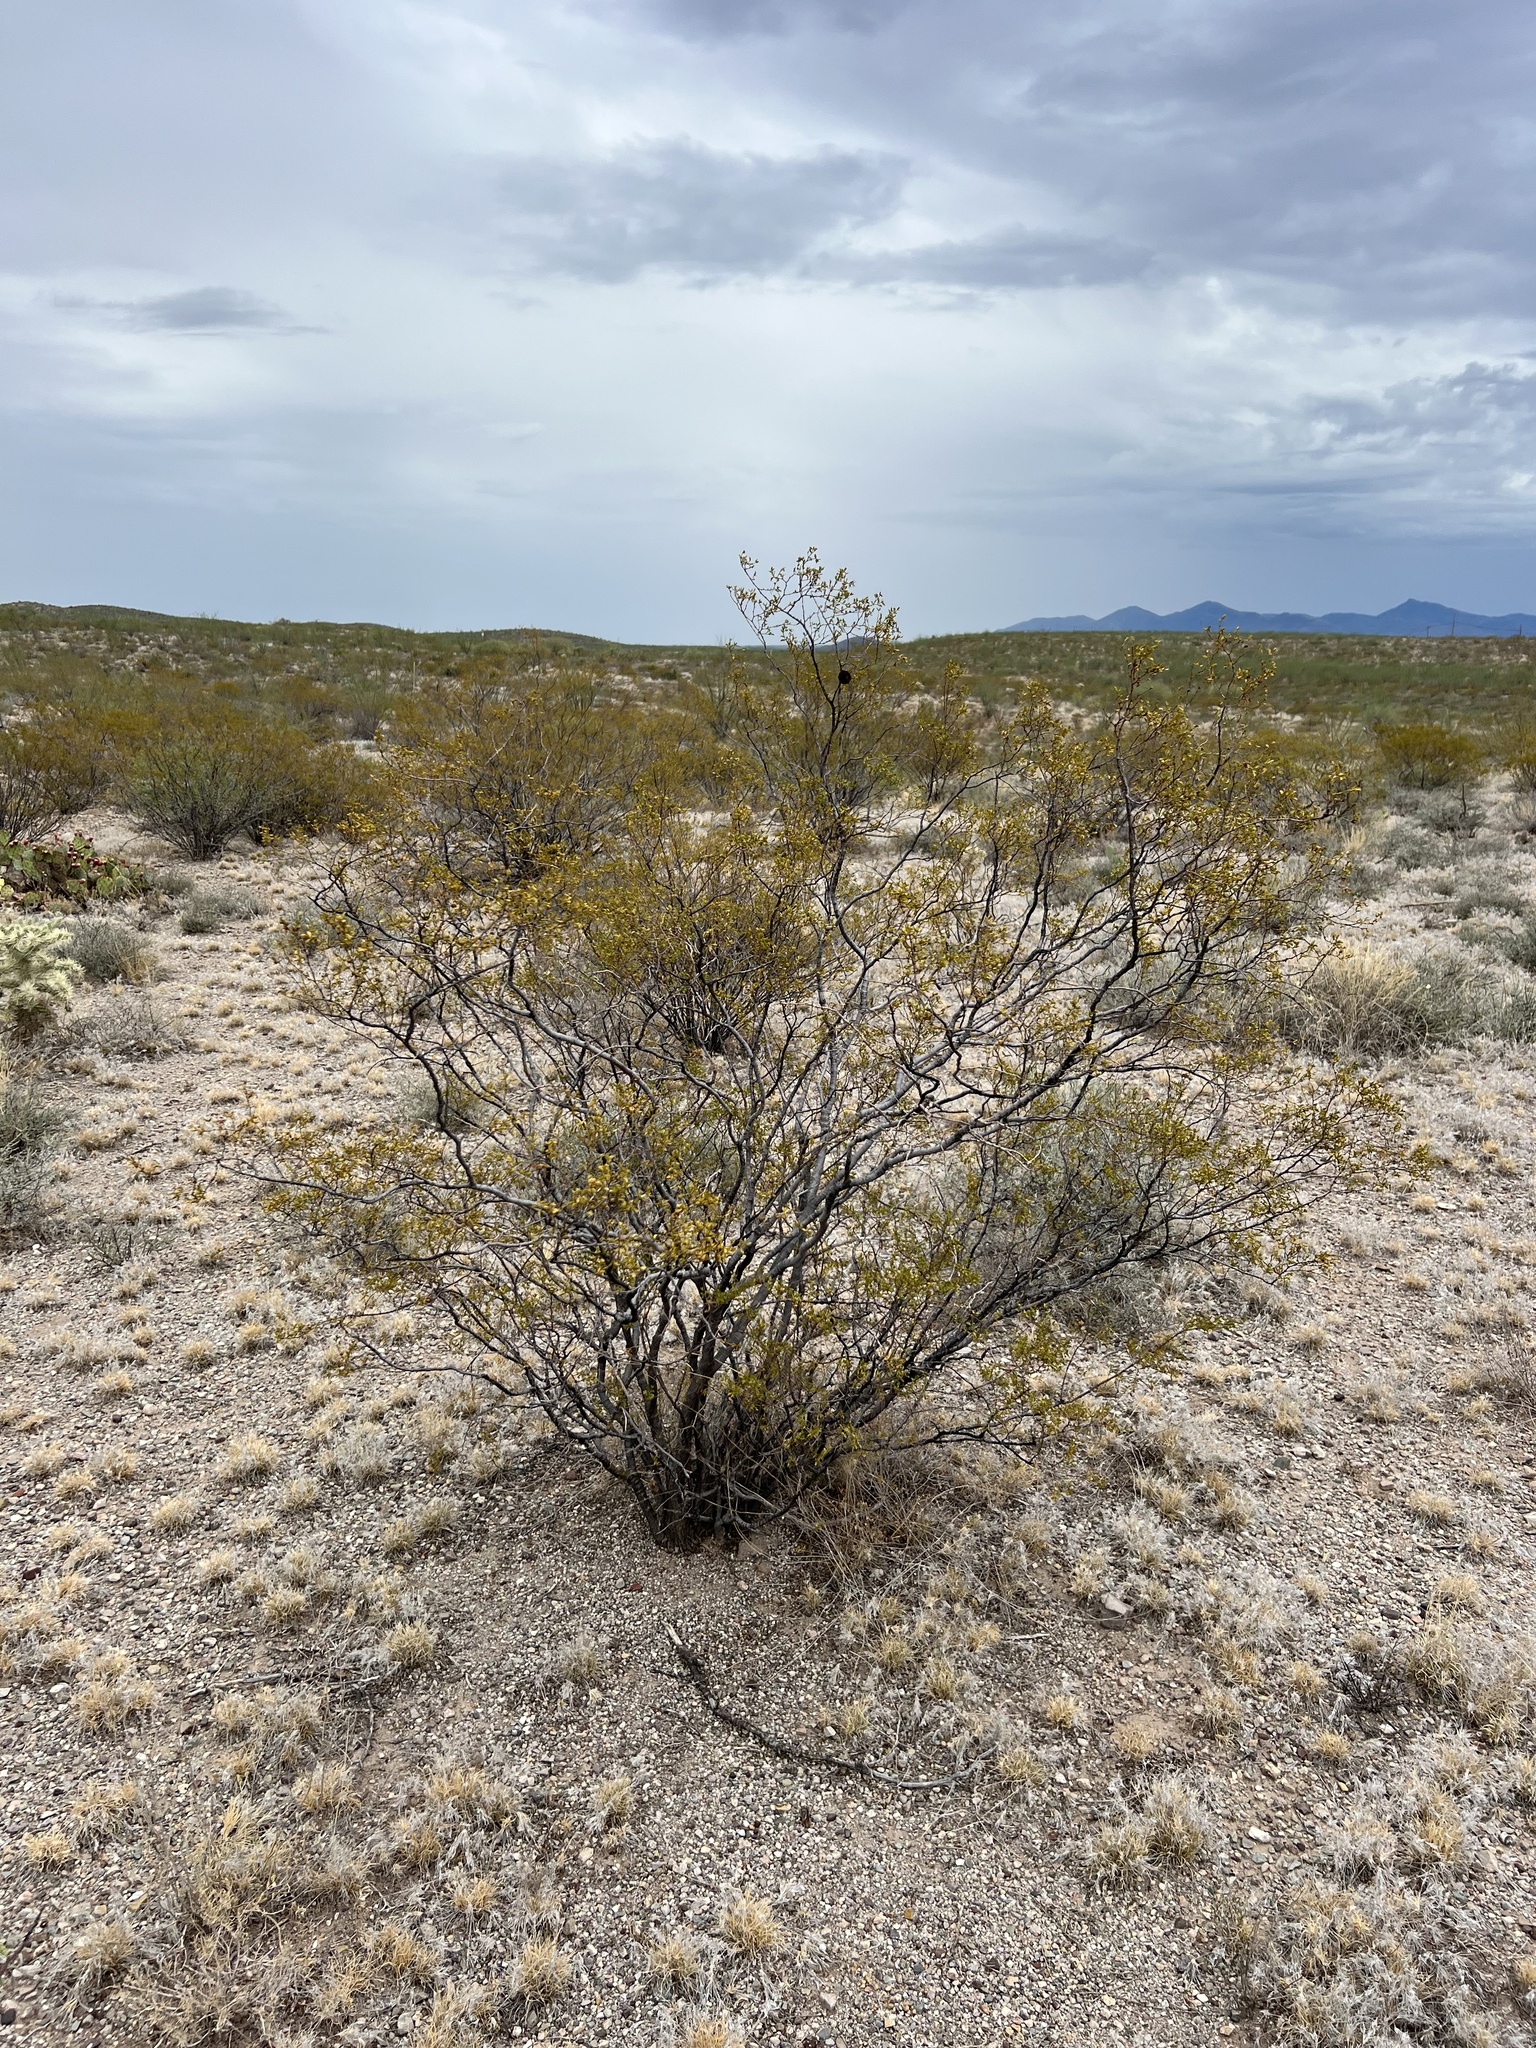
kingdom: Plantae
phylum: Tracheophyta
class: Magnoliopsida
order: Zygophyllales
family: Zygophyllaceae
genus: Larrea
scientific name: Larrea tridentata
